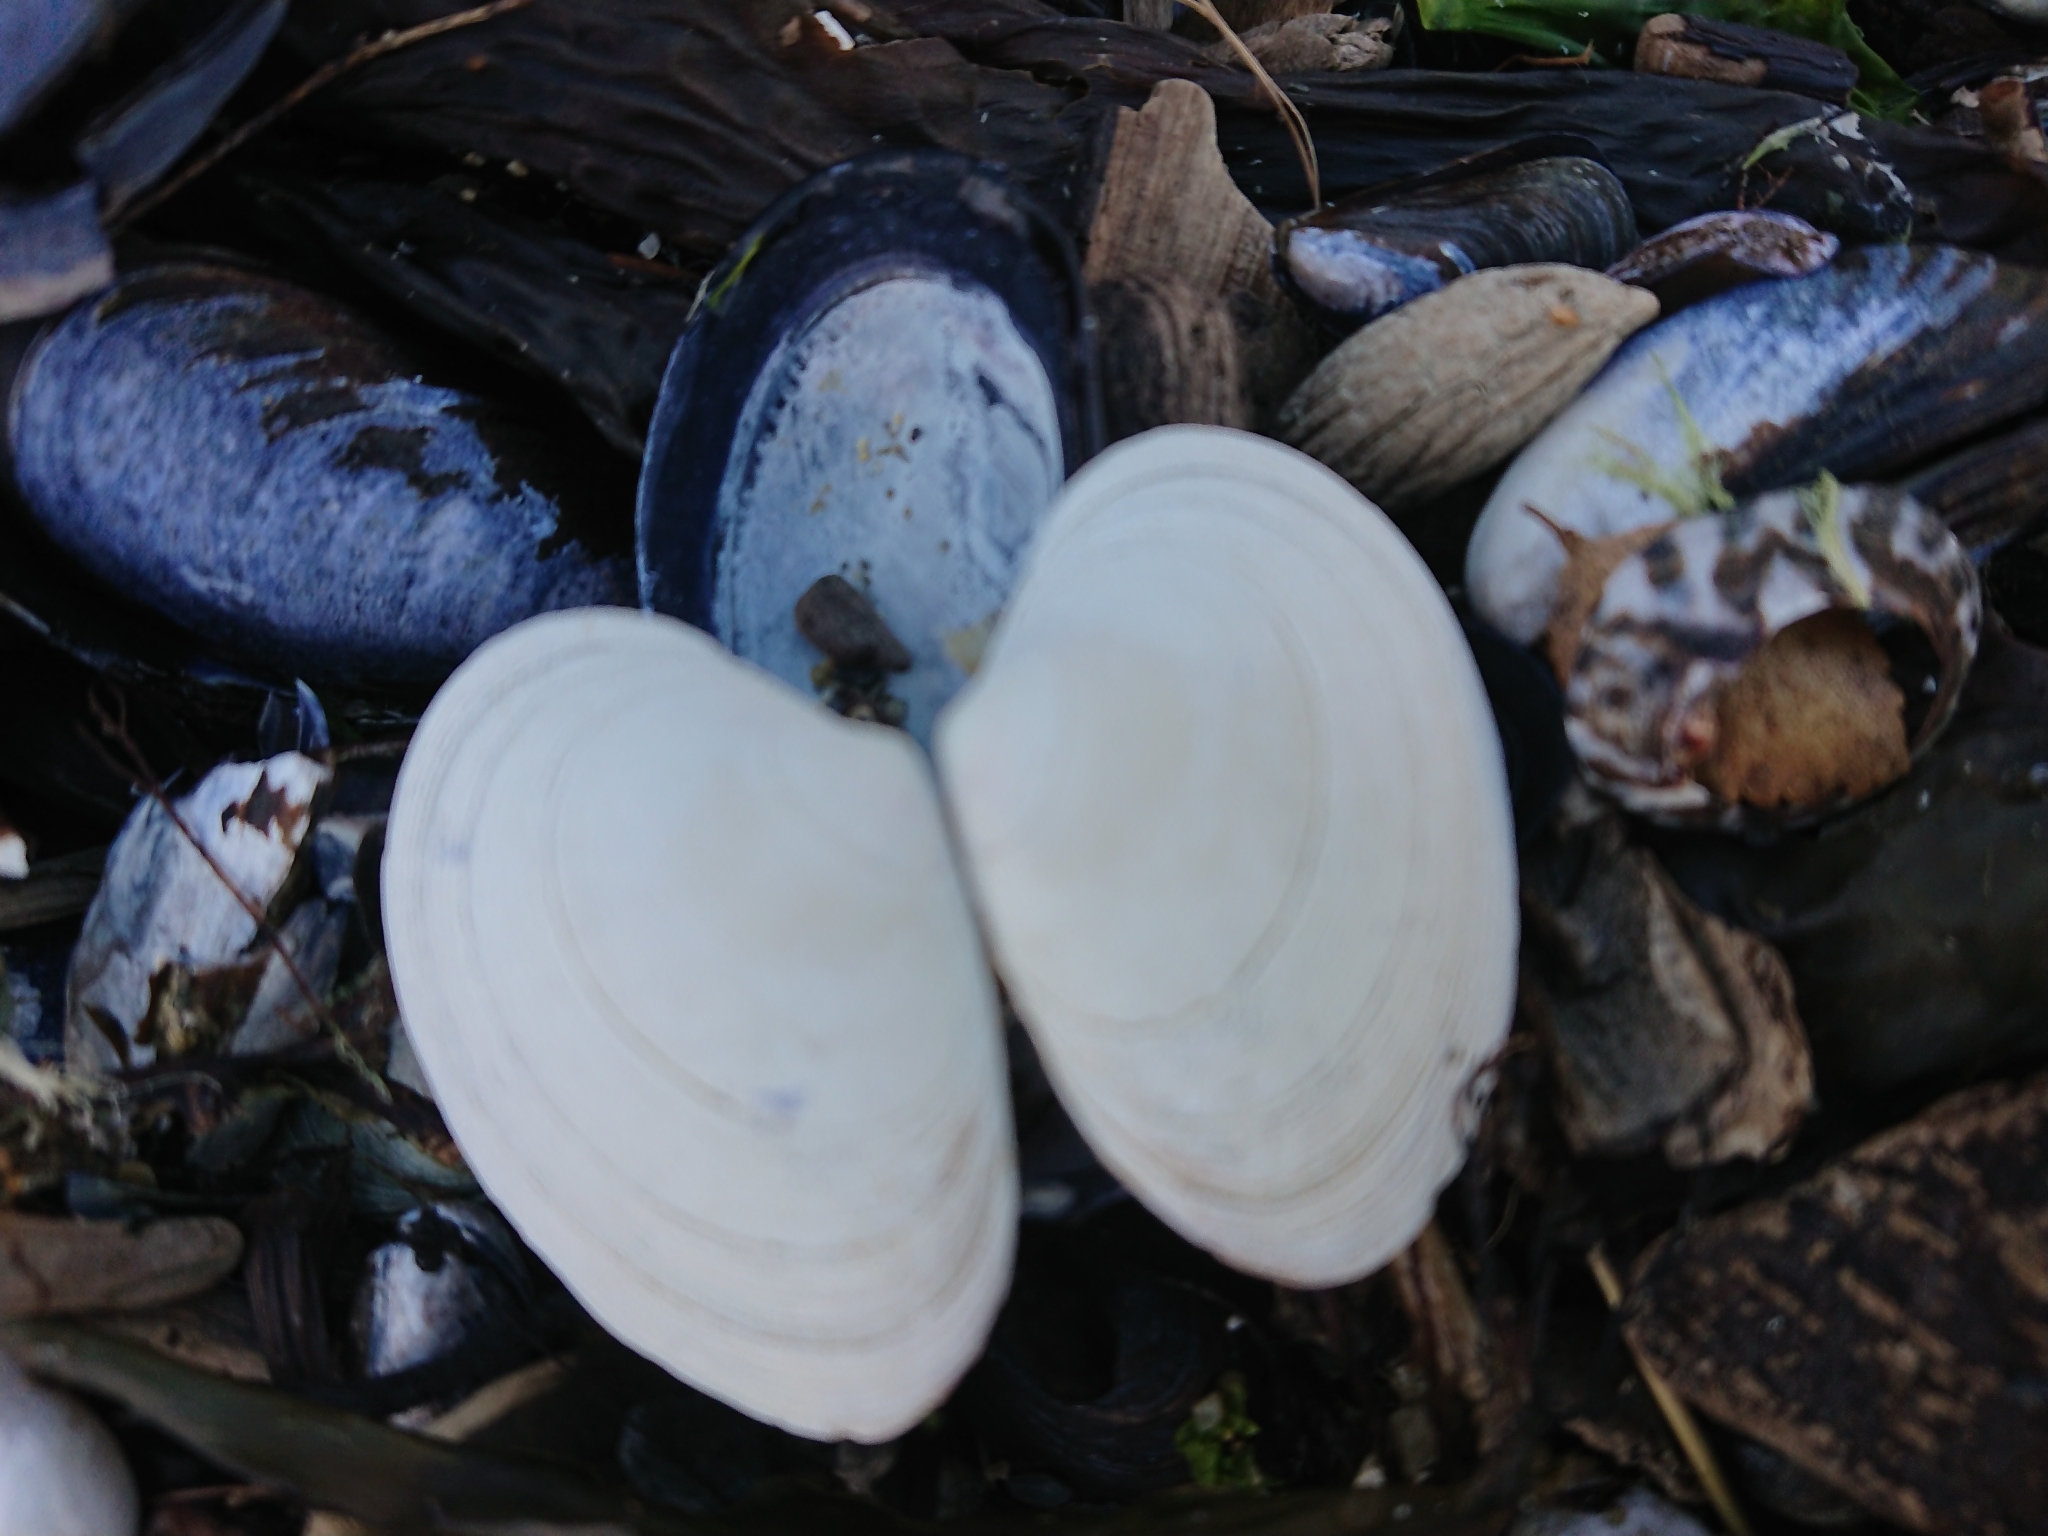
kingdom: Animalia
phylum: Mollusca
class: Bivalvia
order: Venerida
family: Veneridae
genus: Tawera
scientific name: Tawera elliptica
